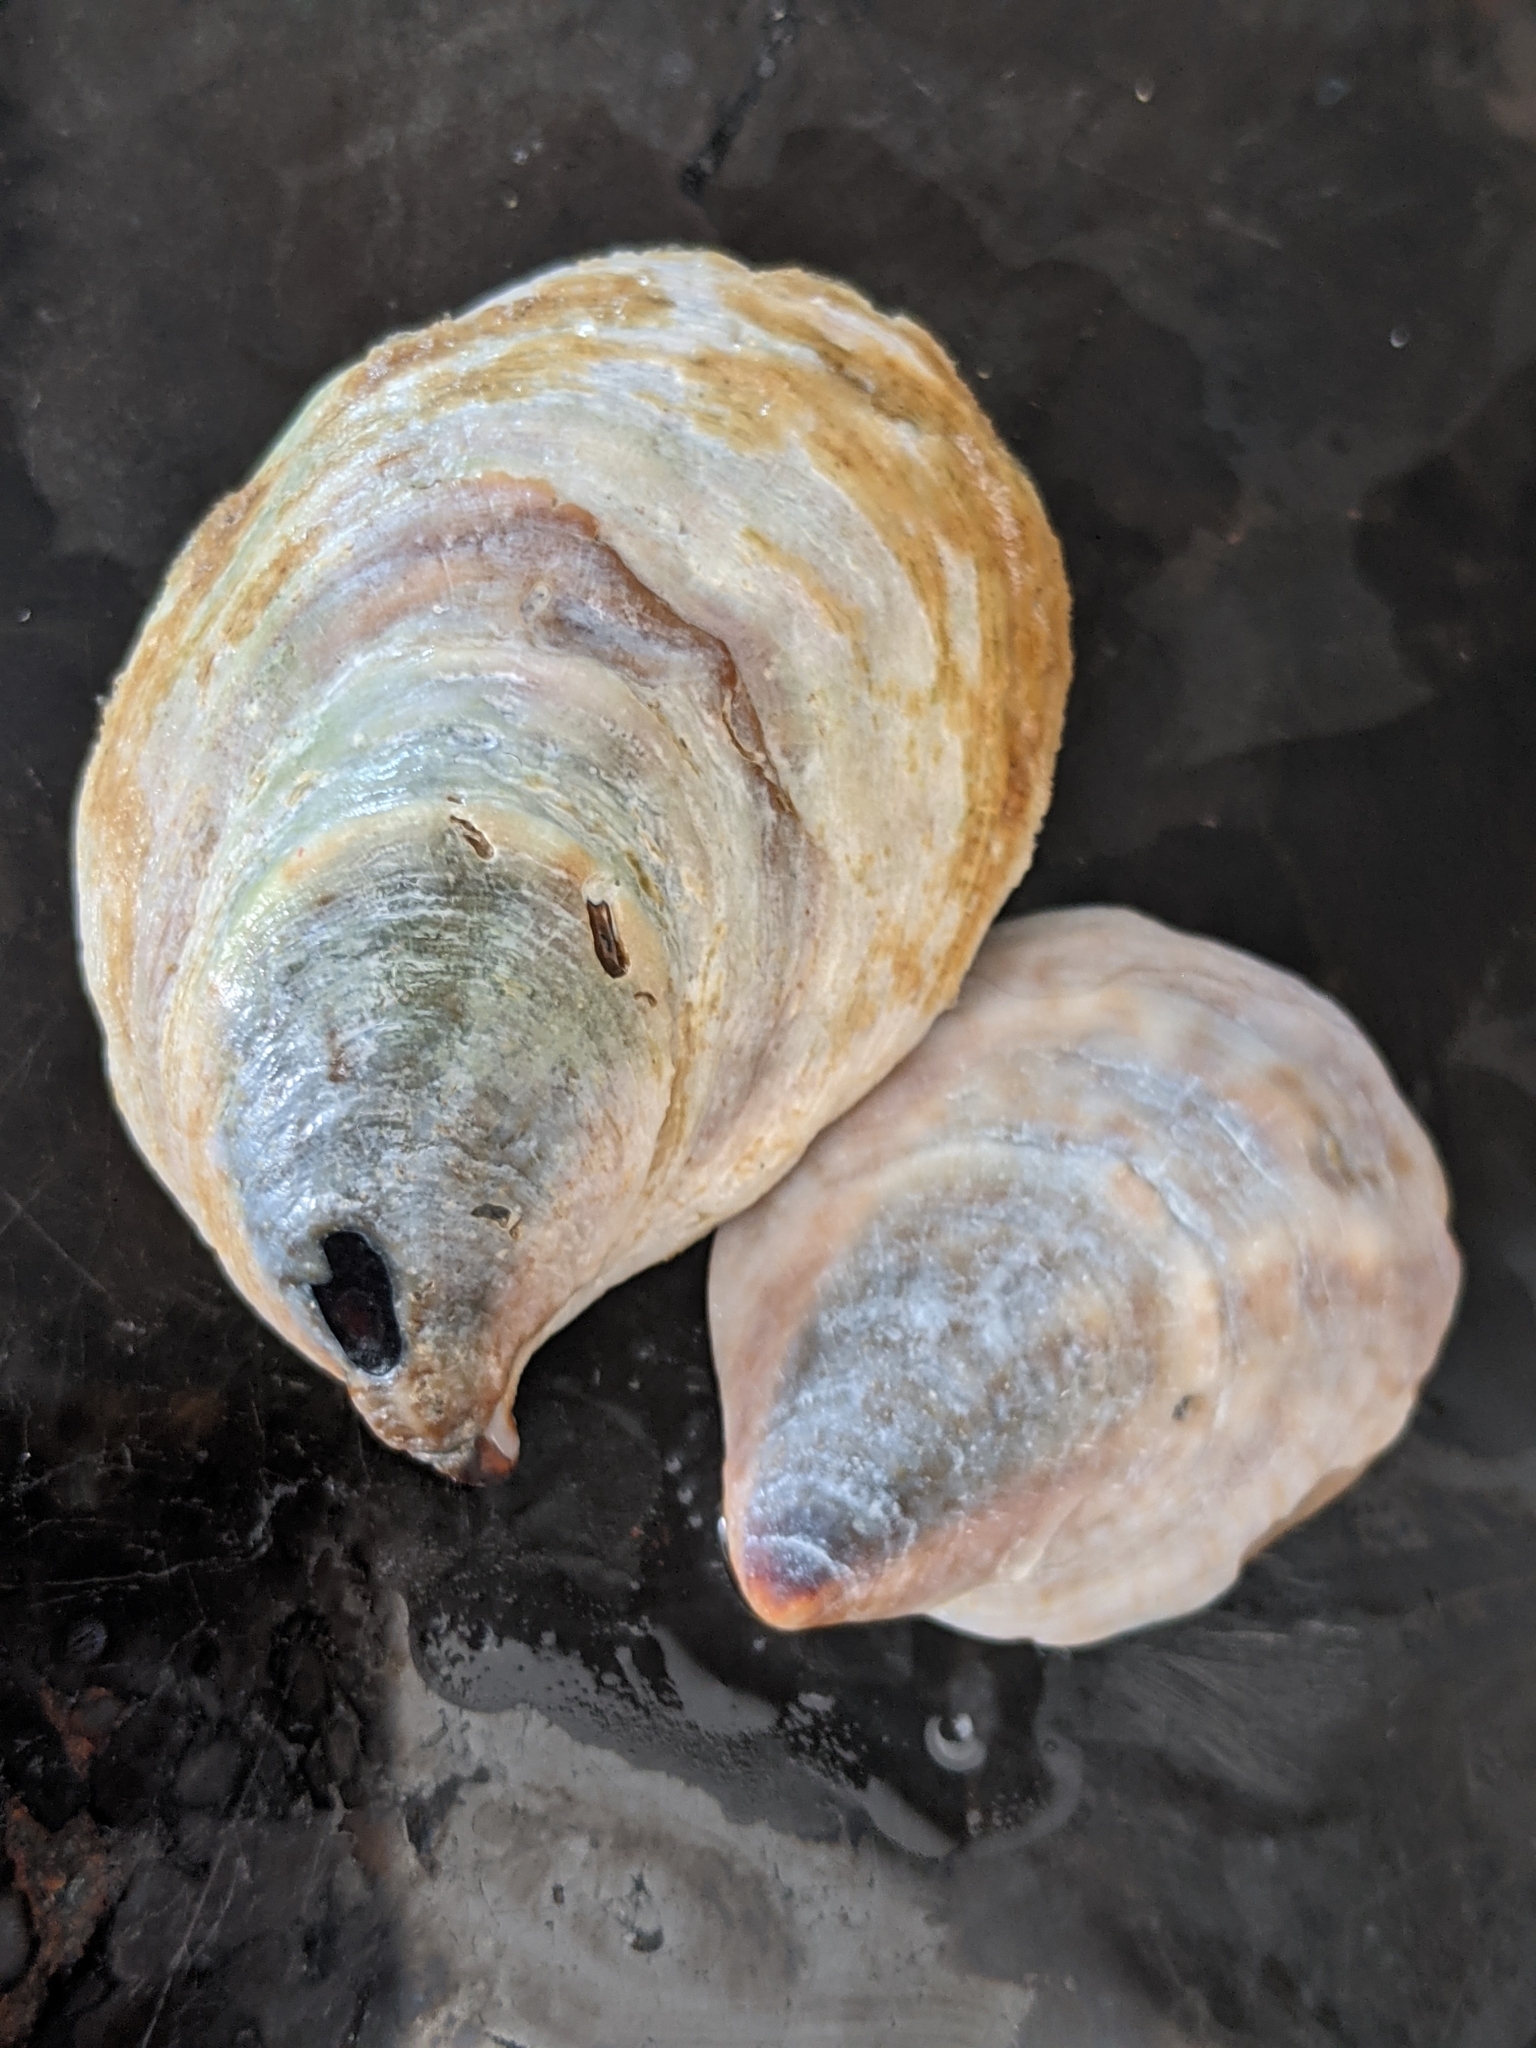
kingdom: Animalia
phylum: Mollusca
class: Gastropoda
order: Littorinimorpha
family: Calyptraeidae
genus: Crepidula
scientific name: Crepidula onyx
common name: Onyx slippersnail
